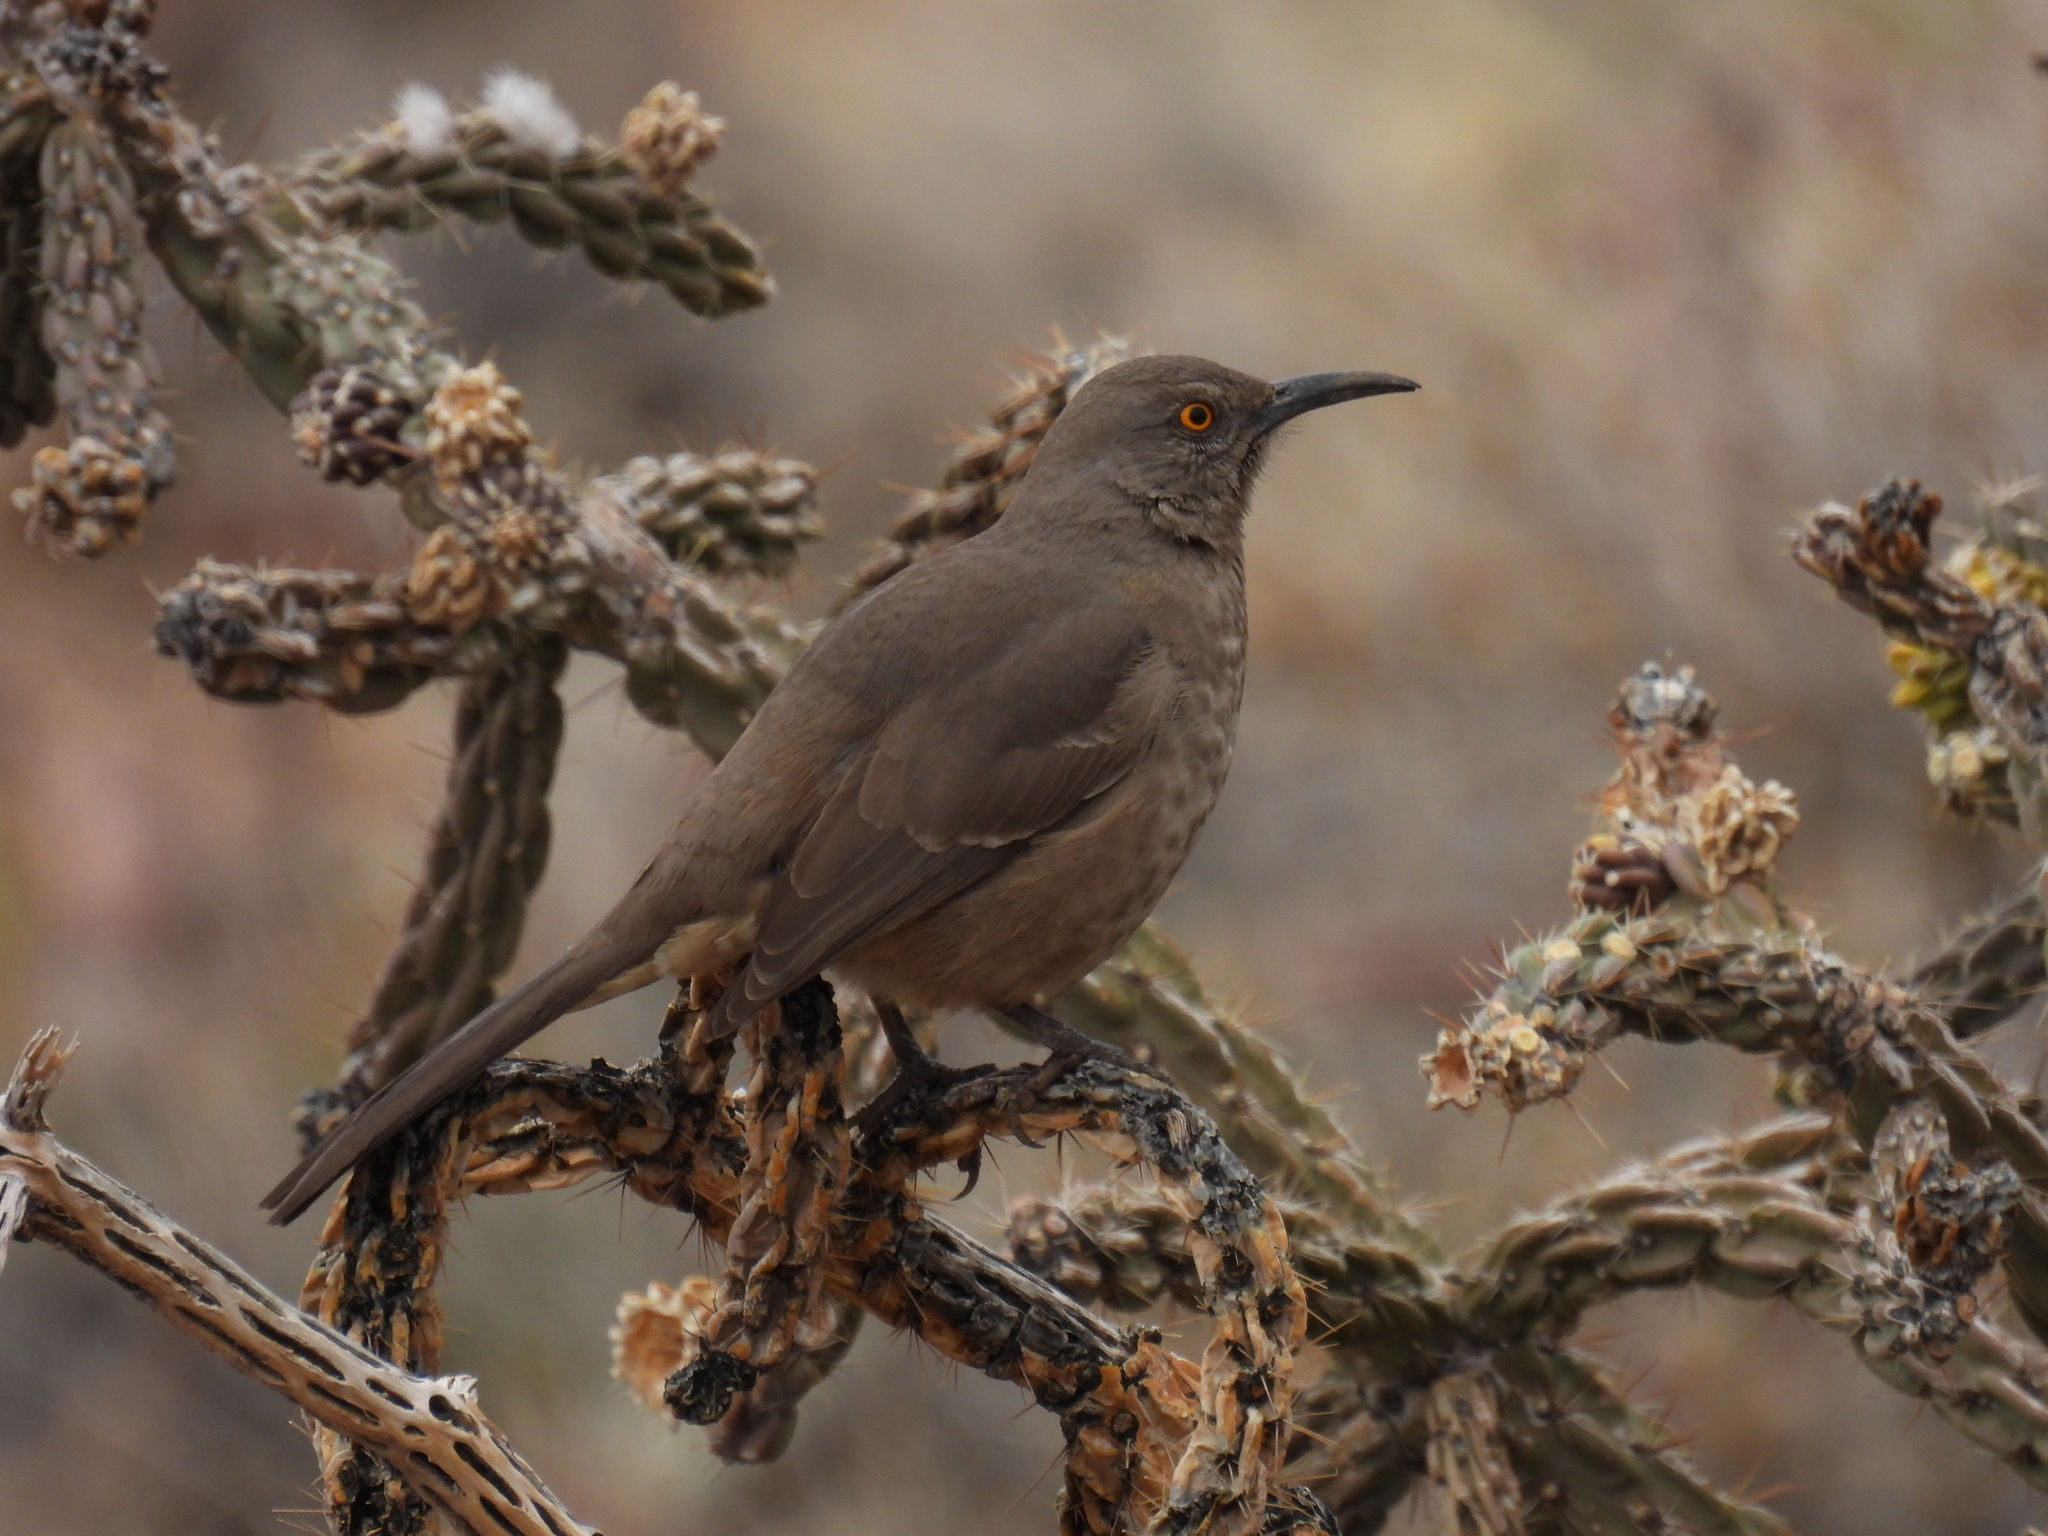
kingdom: Animalia
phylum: Chordata
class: Aves
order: Passeriformes
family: Mimidae
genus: Toxostoma
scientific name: Toxostoma curvirostre
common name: Curve-billed thrasher
